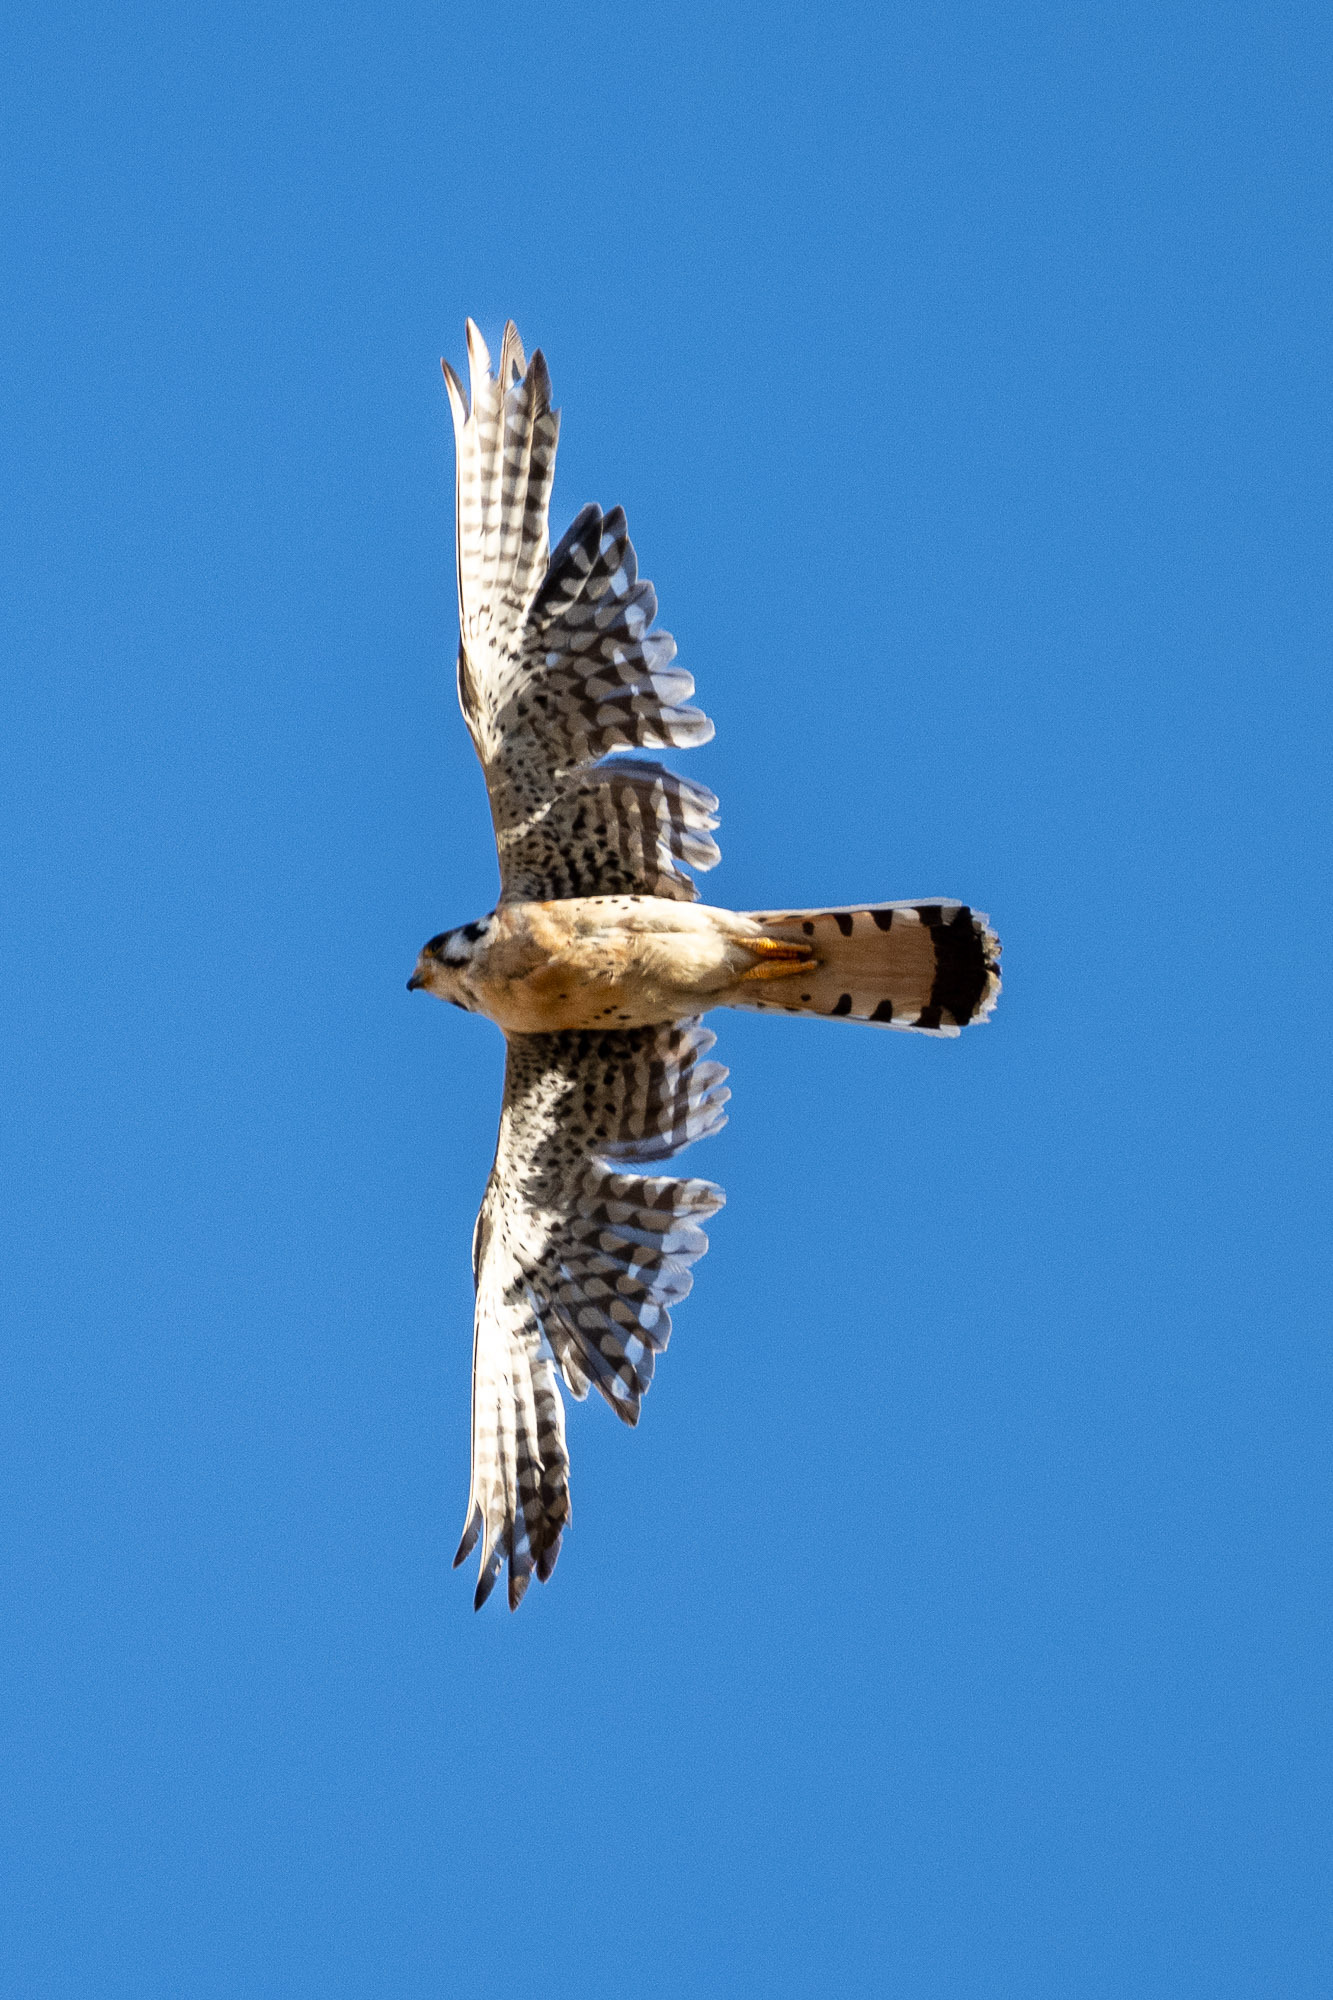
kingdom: Animalia
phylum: Chordata
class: Aves
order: Falconiformes
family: Falconidae
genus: Falco
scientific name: Falco sparverius
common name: American kestrel
